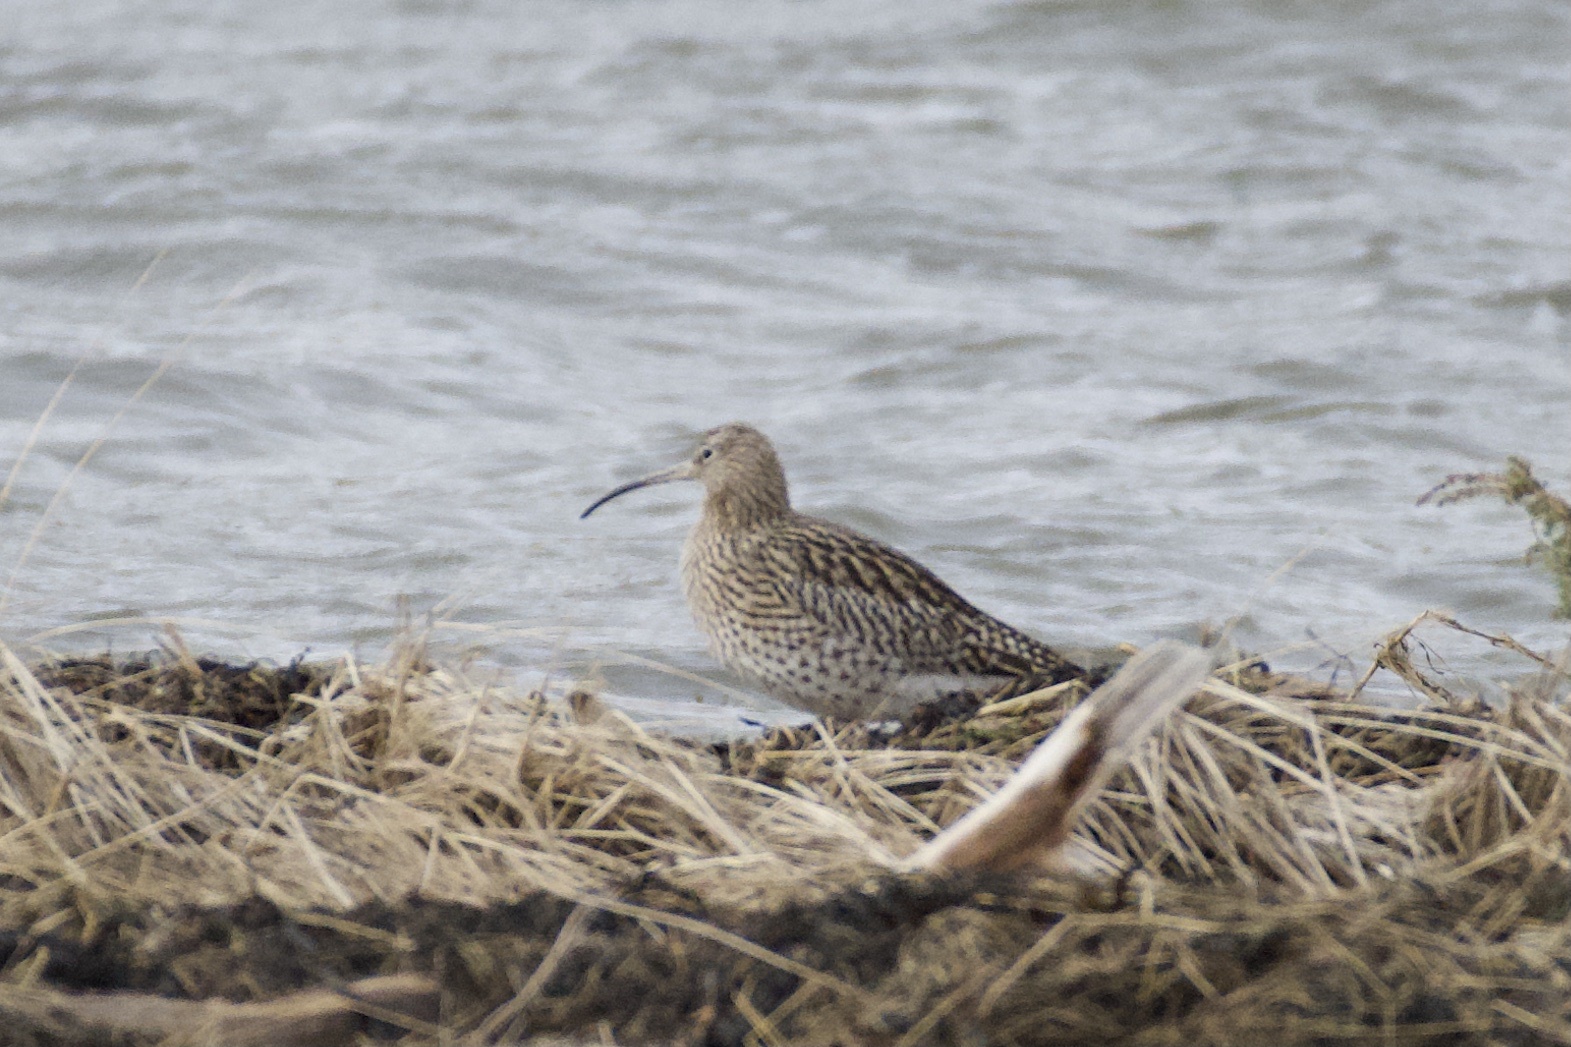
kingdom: Animalia
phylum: Chordata
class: Aves
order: Charadriiformes
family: Scolopacidae
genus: Numenius
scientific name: Numenius arquata
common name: Eurasian curlew
